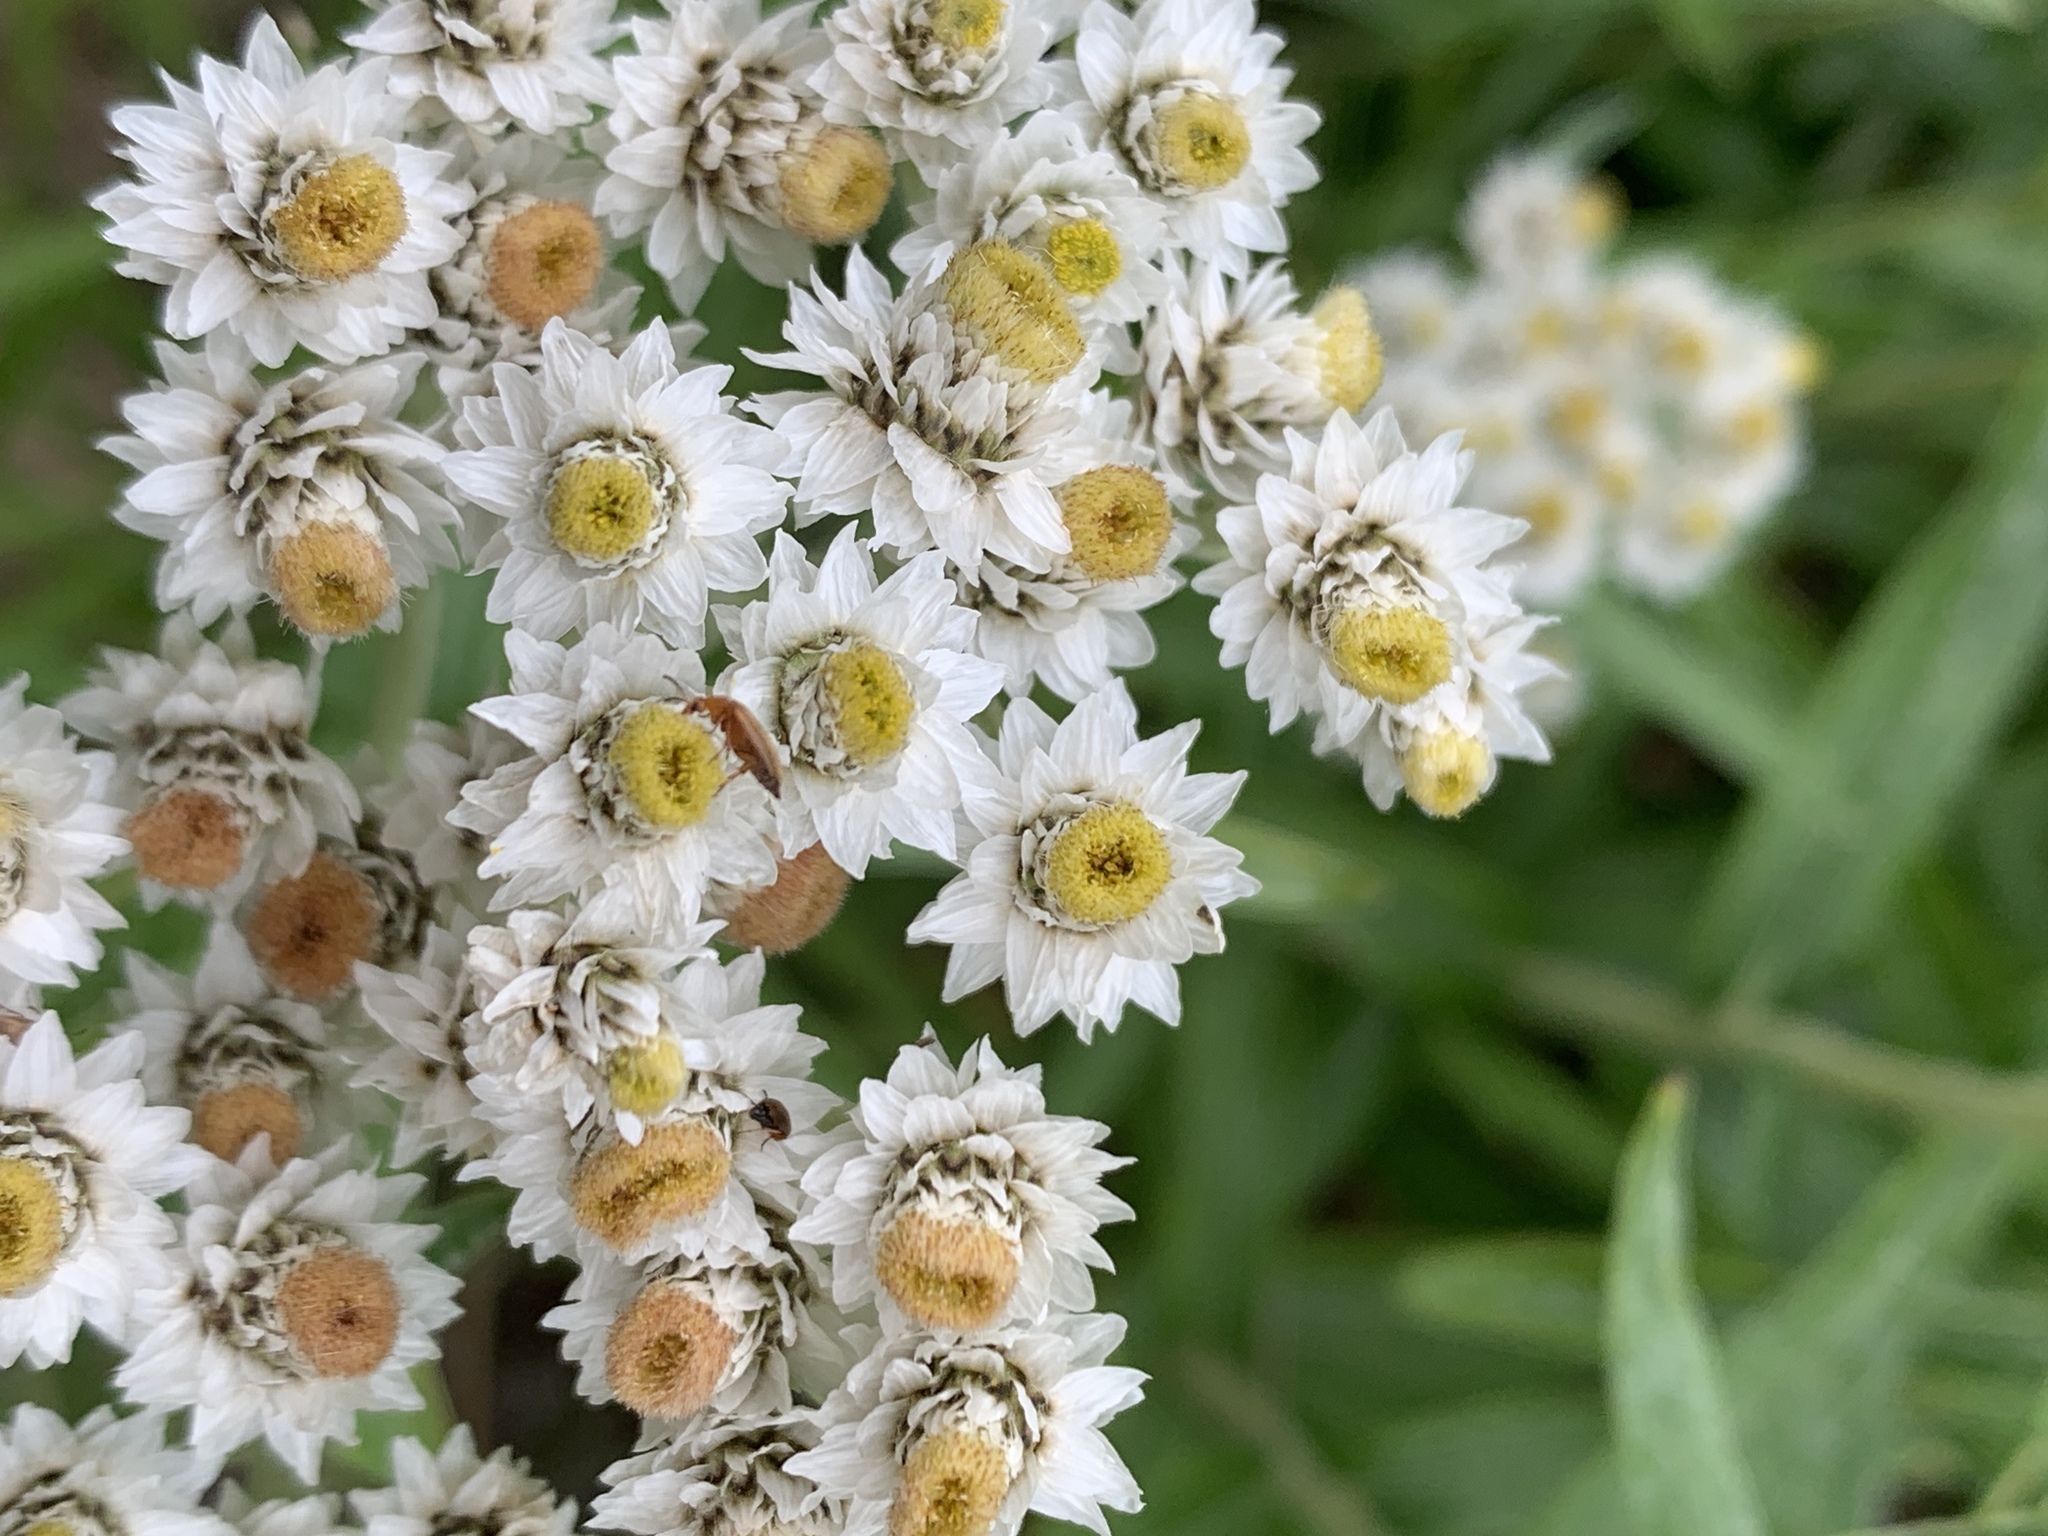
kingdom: Plantae
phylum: Tracheophyta
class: Magnoliopsida
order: Asterales
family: Asteraceae
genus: Anaphalis
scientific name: Anaphalis margaritacea
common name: Pearly everlasting
